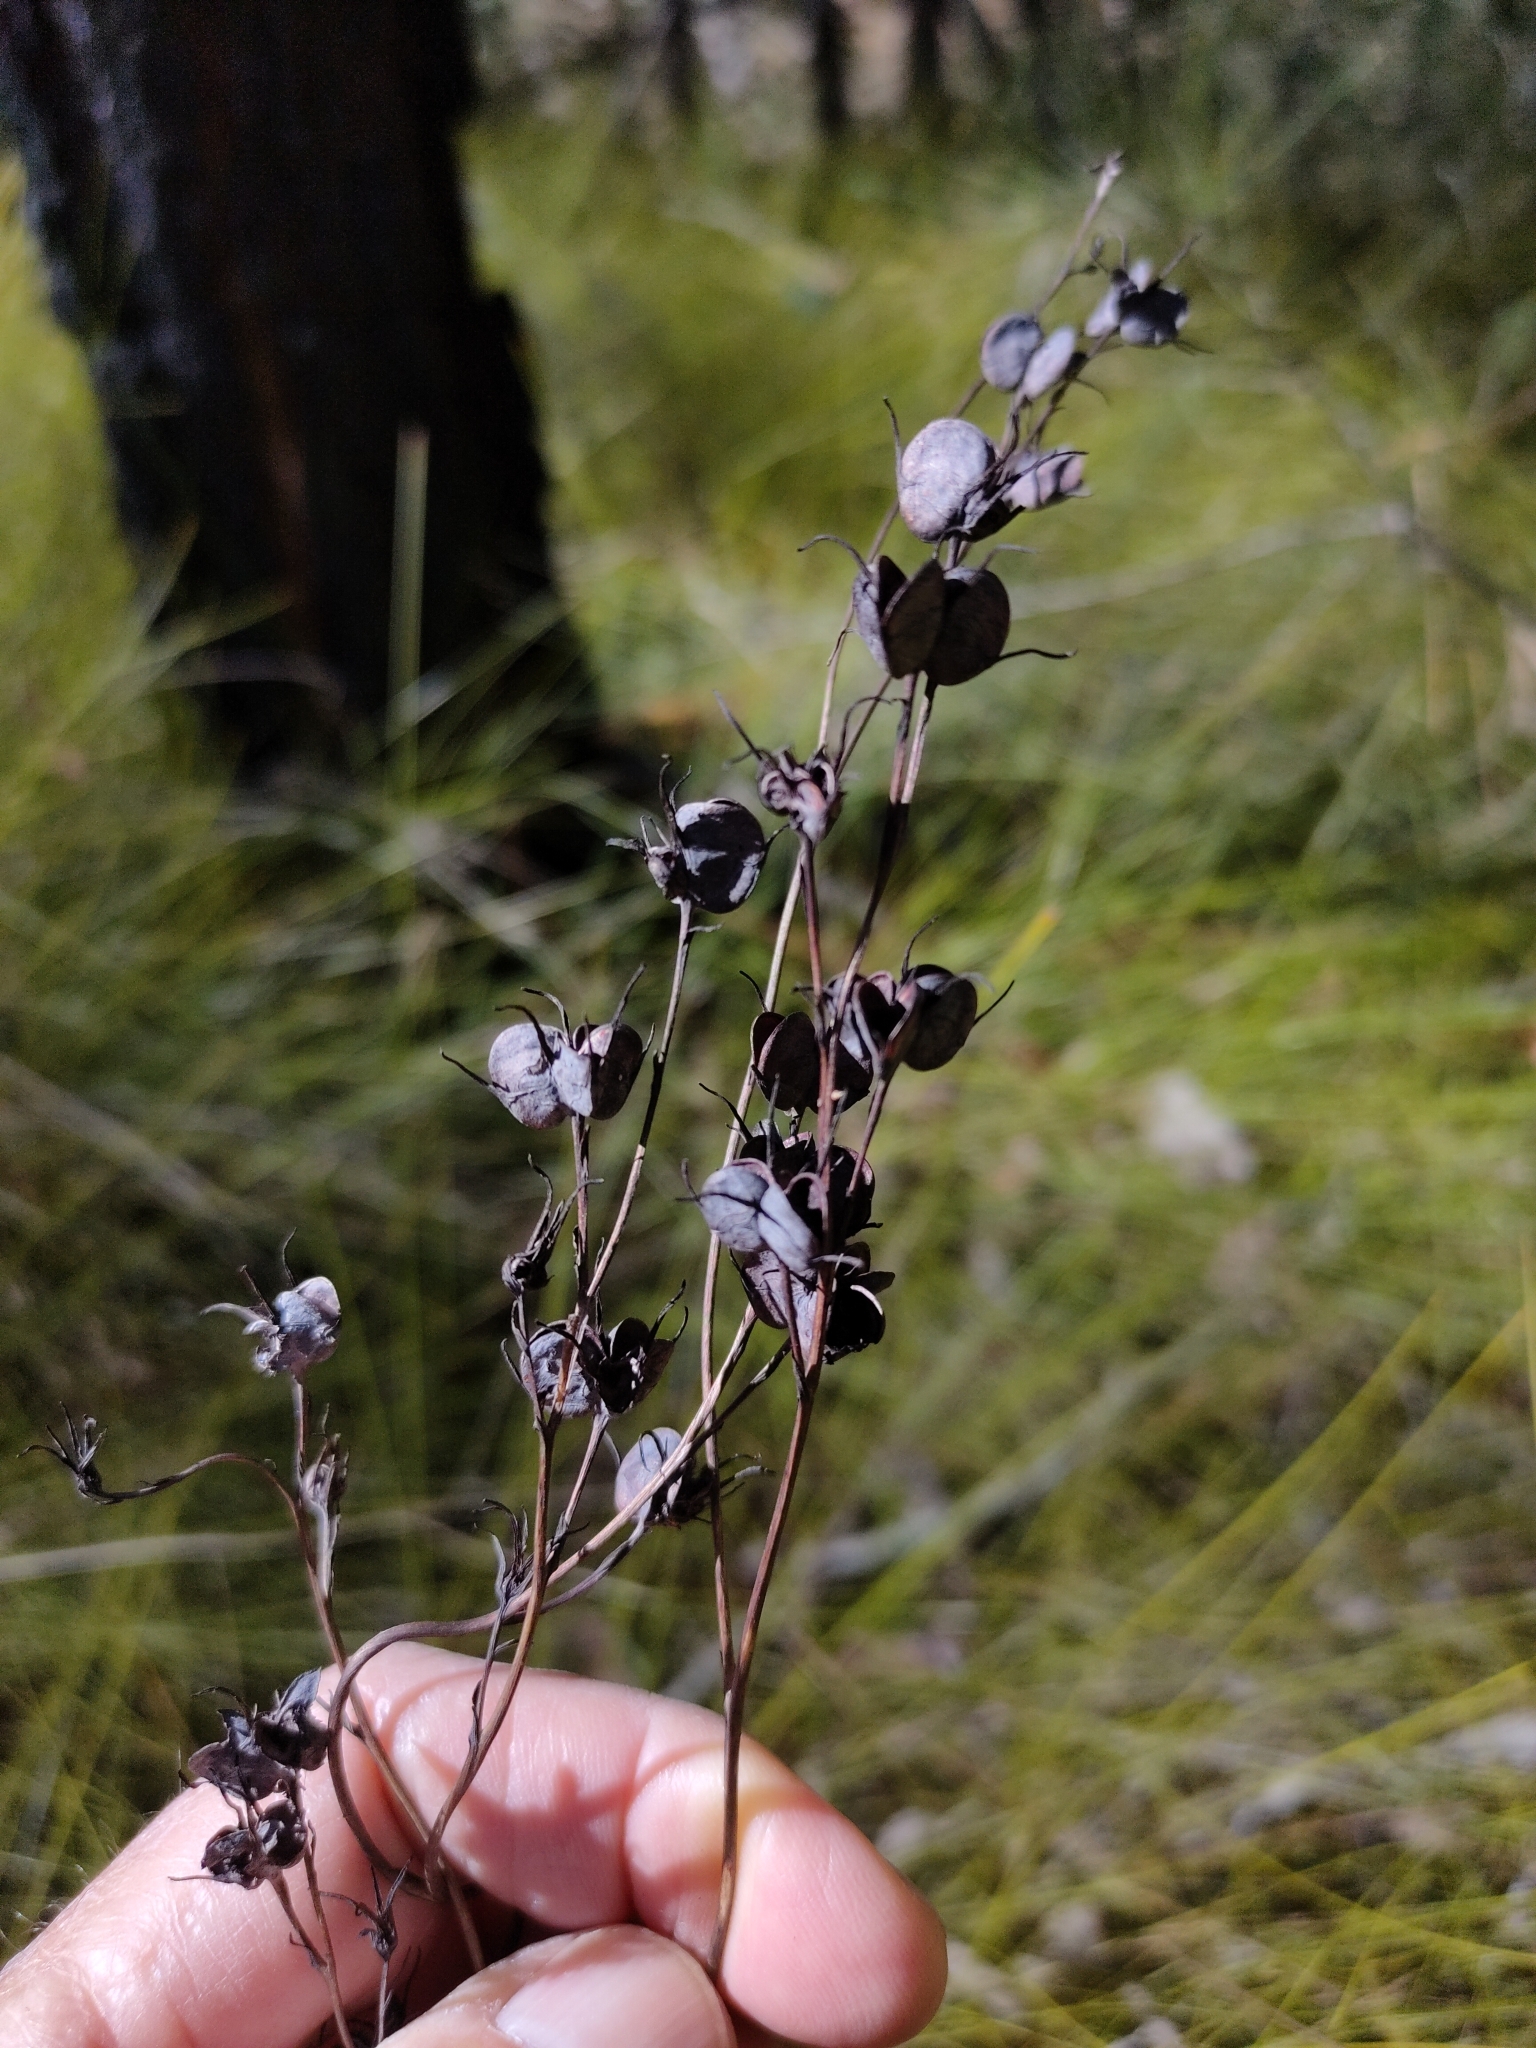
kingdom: Plantae
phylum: Tracheophyta
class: Liliopsida
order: Commelinales
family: Haemodoraceae
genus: Haemodorum
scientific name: Haemodorum austroqueenslandicum
